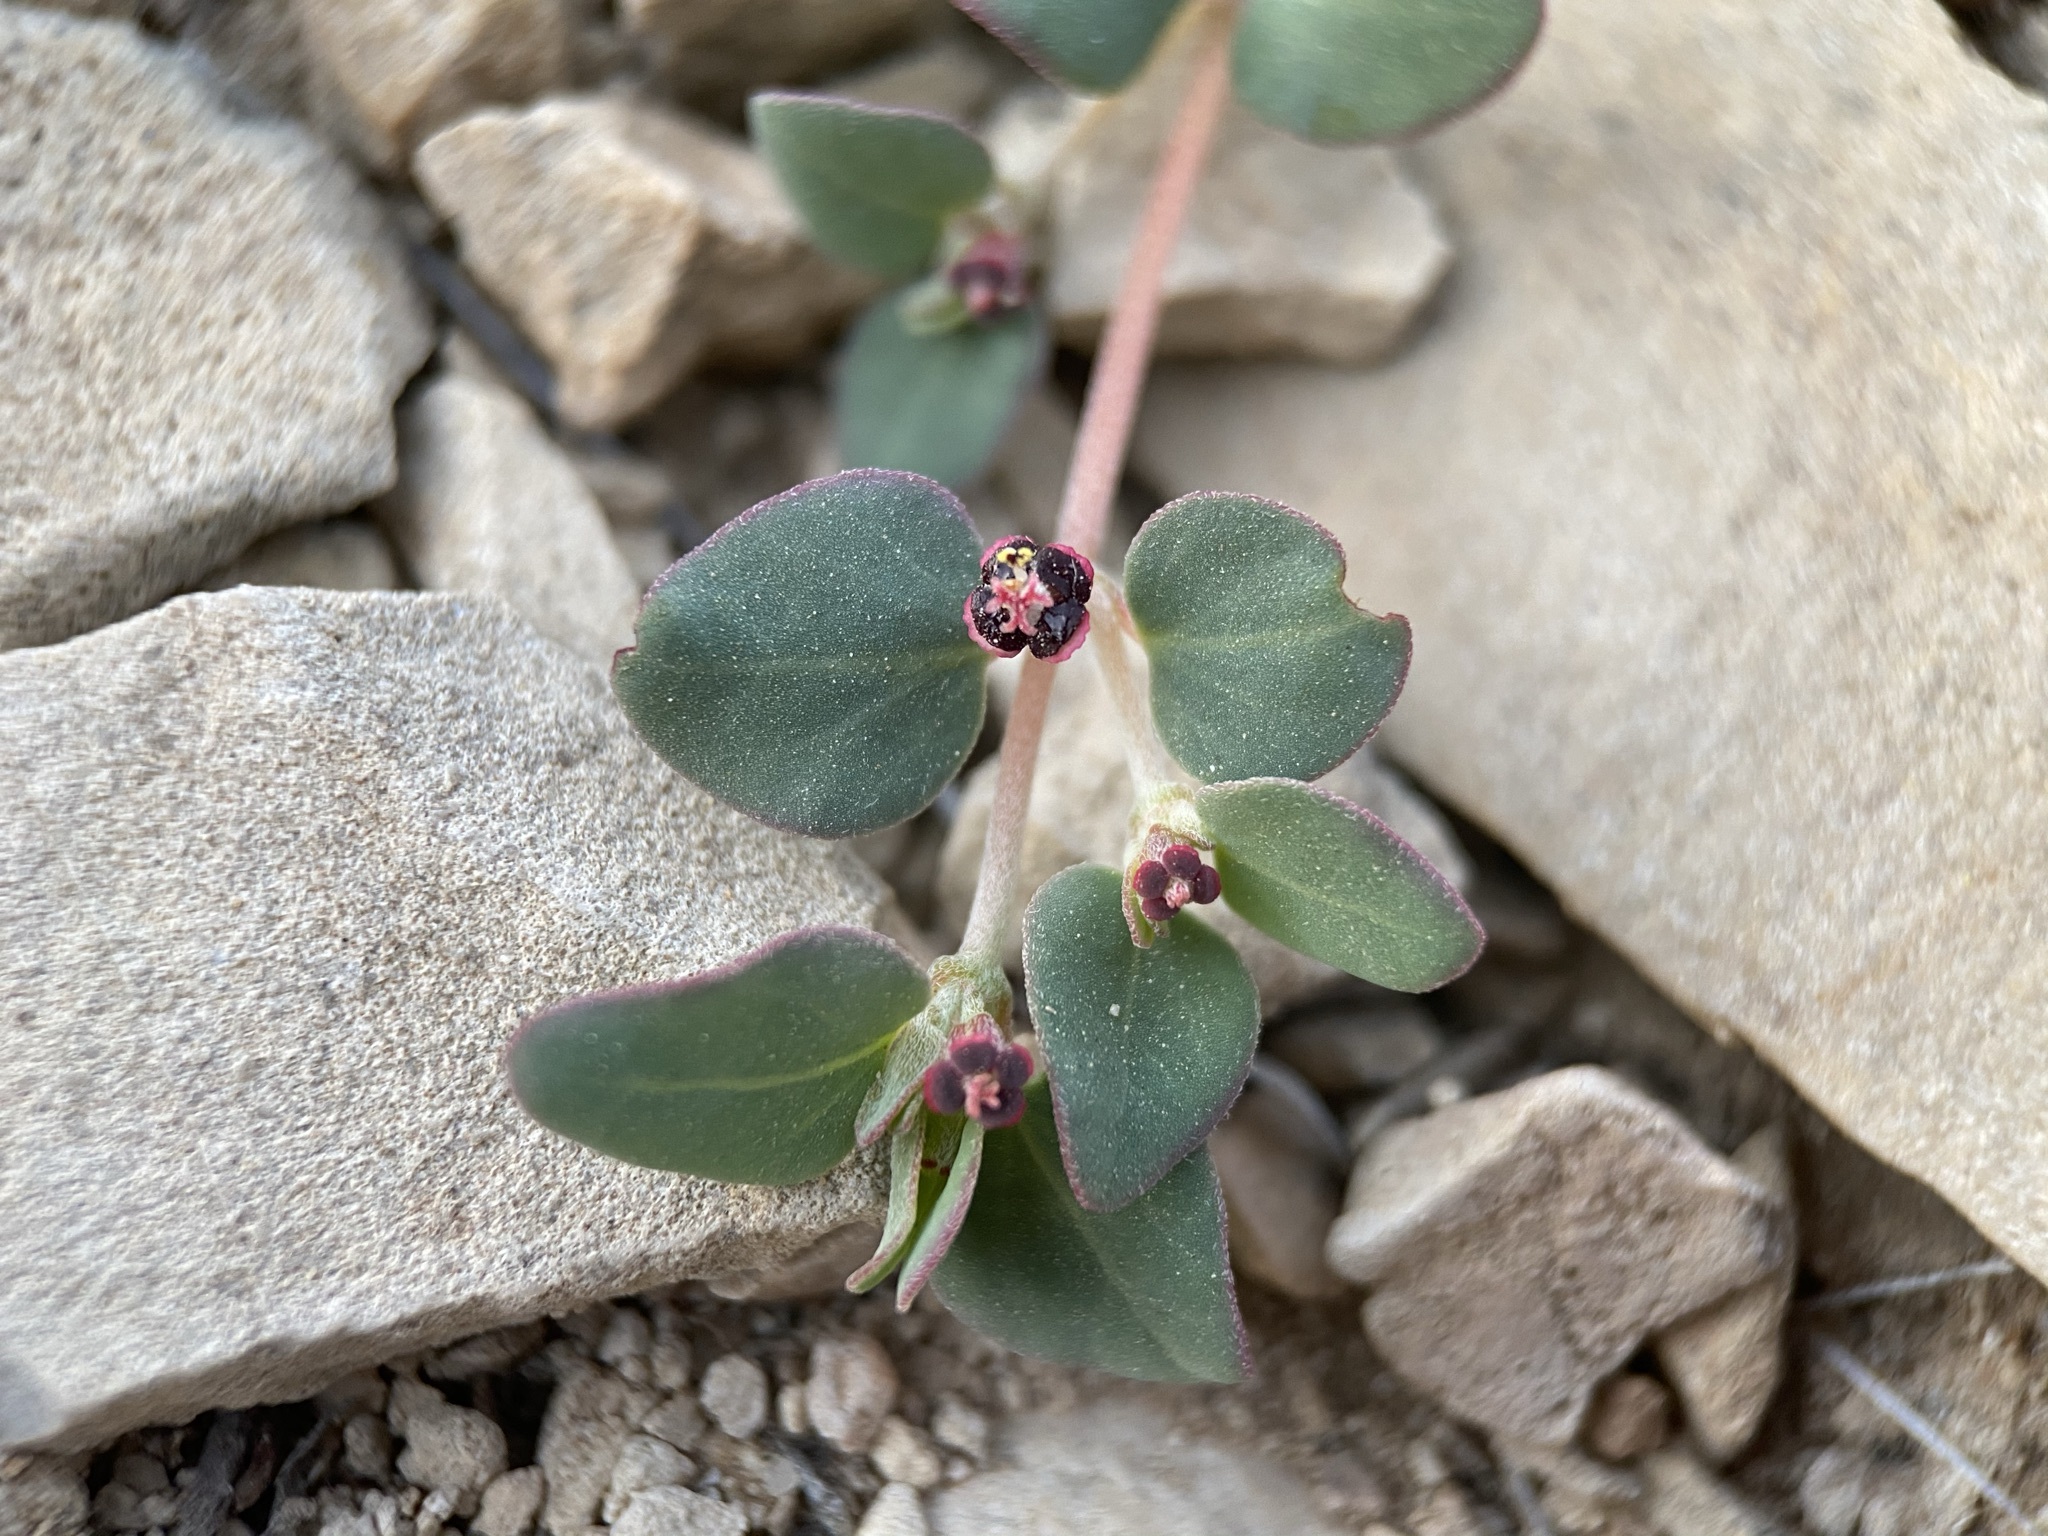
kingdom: Plantae
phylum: Tracheophyta
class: Magnoliopsida
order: Malpighiales
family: Euphorbiaceae
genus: Euphorbia
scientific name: Euphorbia cinerascens
